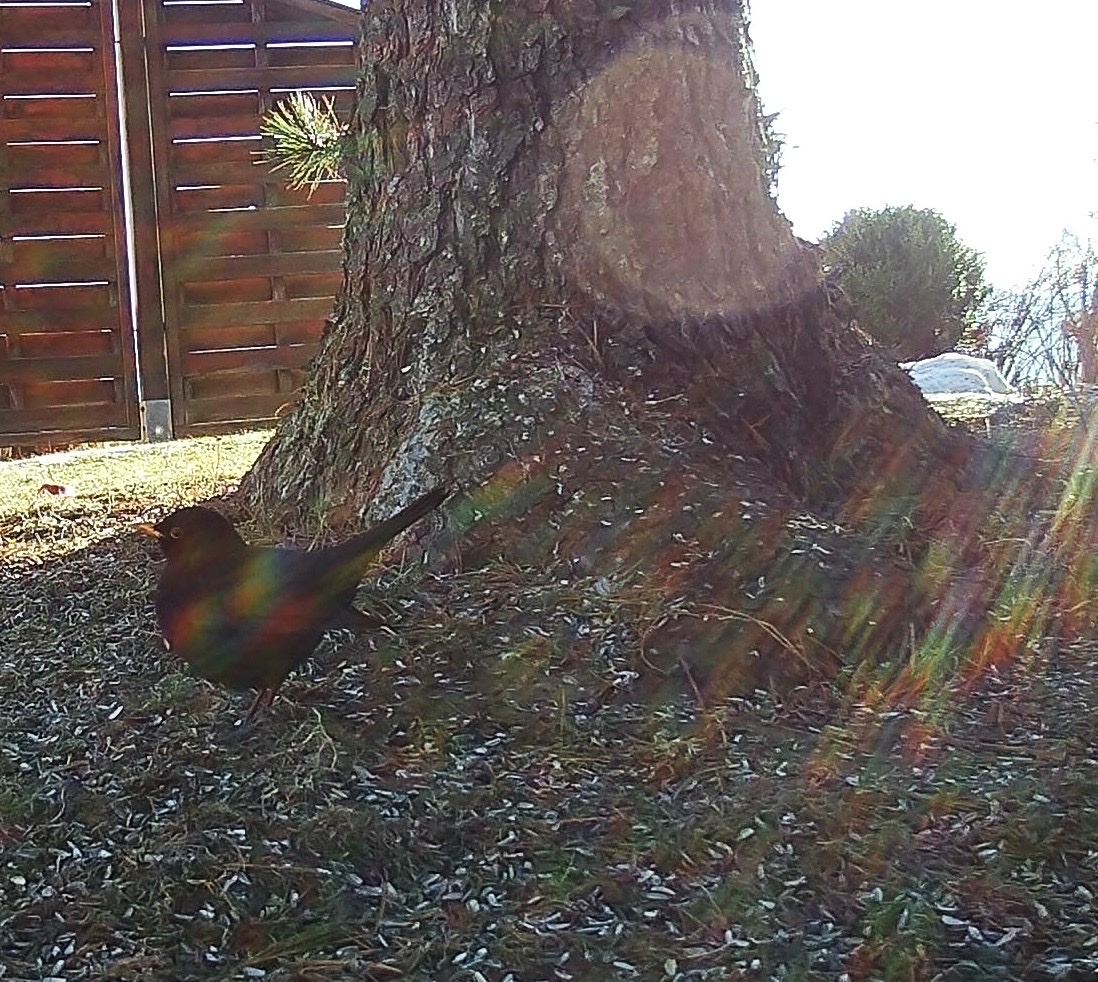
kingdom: Animalia
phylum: Chordata
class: Aves
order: Passeriformes
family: Turdidae
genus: Turdus
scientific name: Turdus merula
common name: Common blackbird
